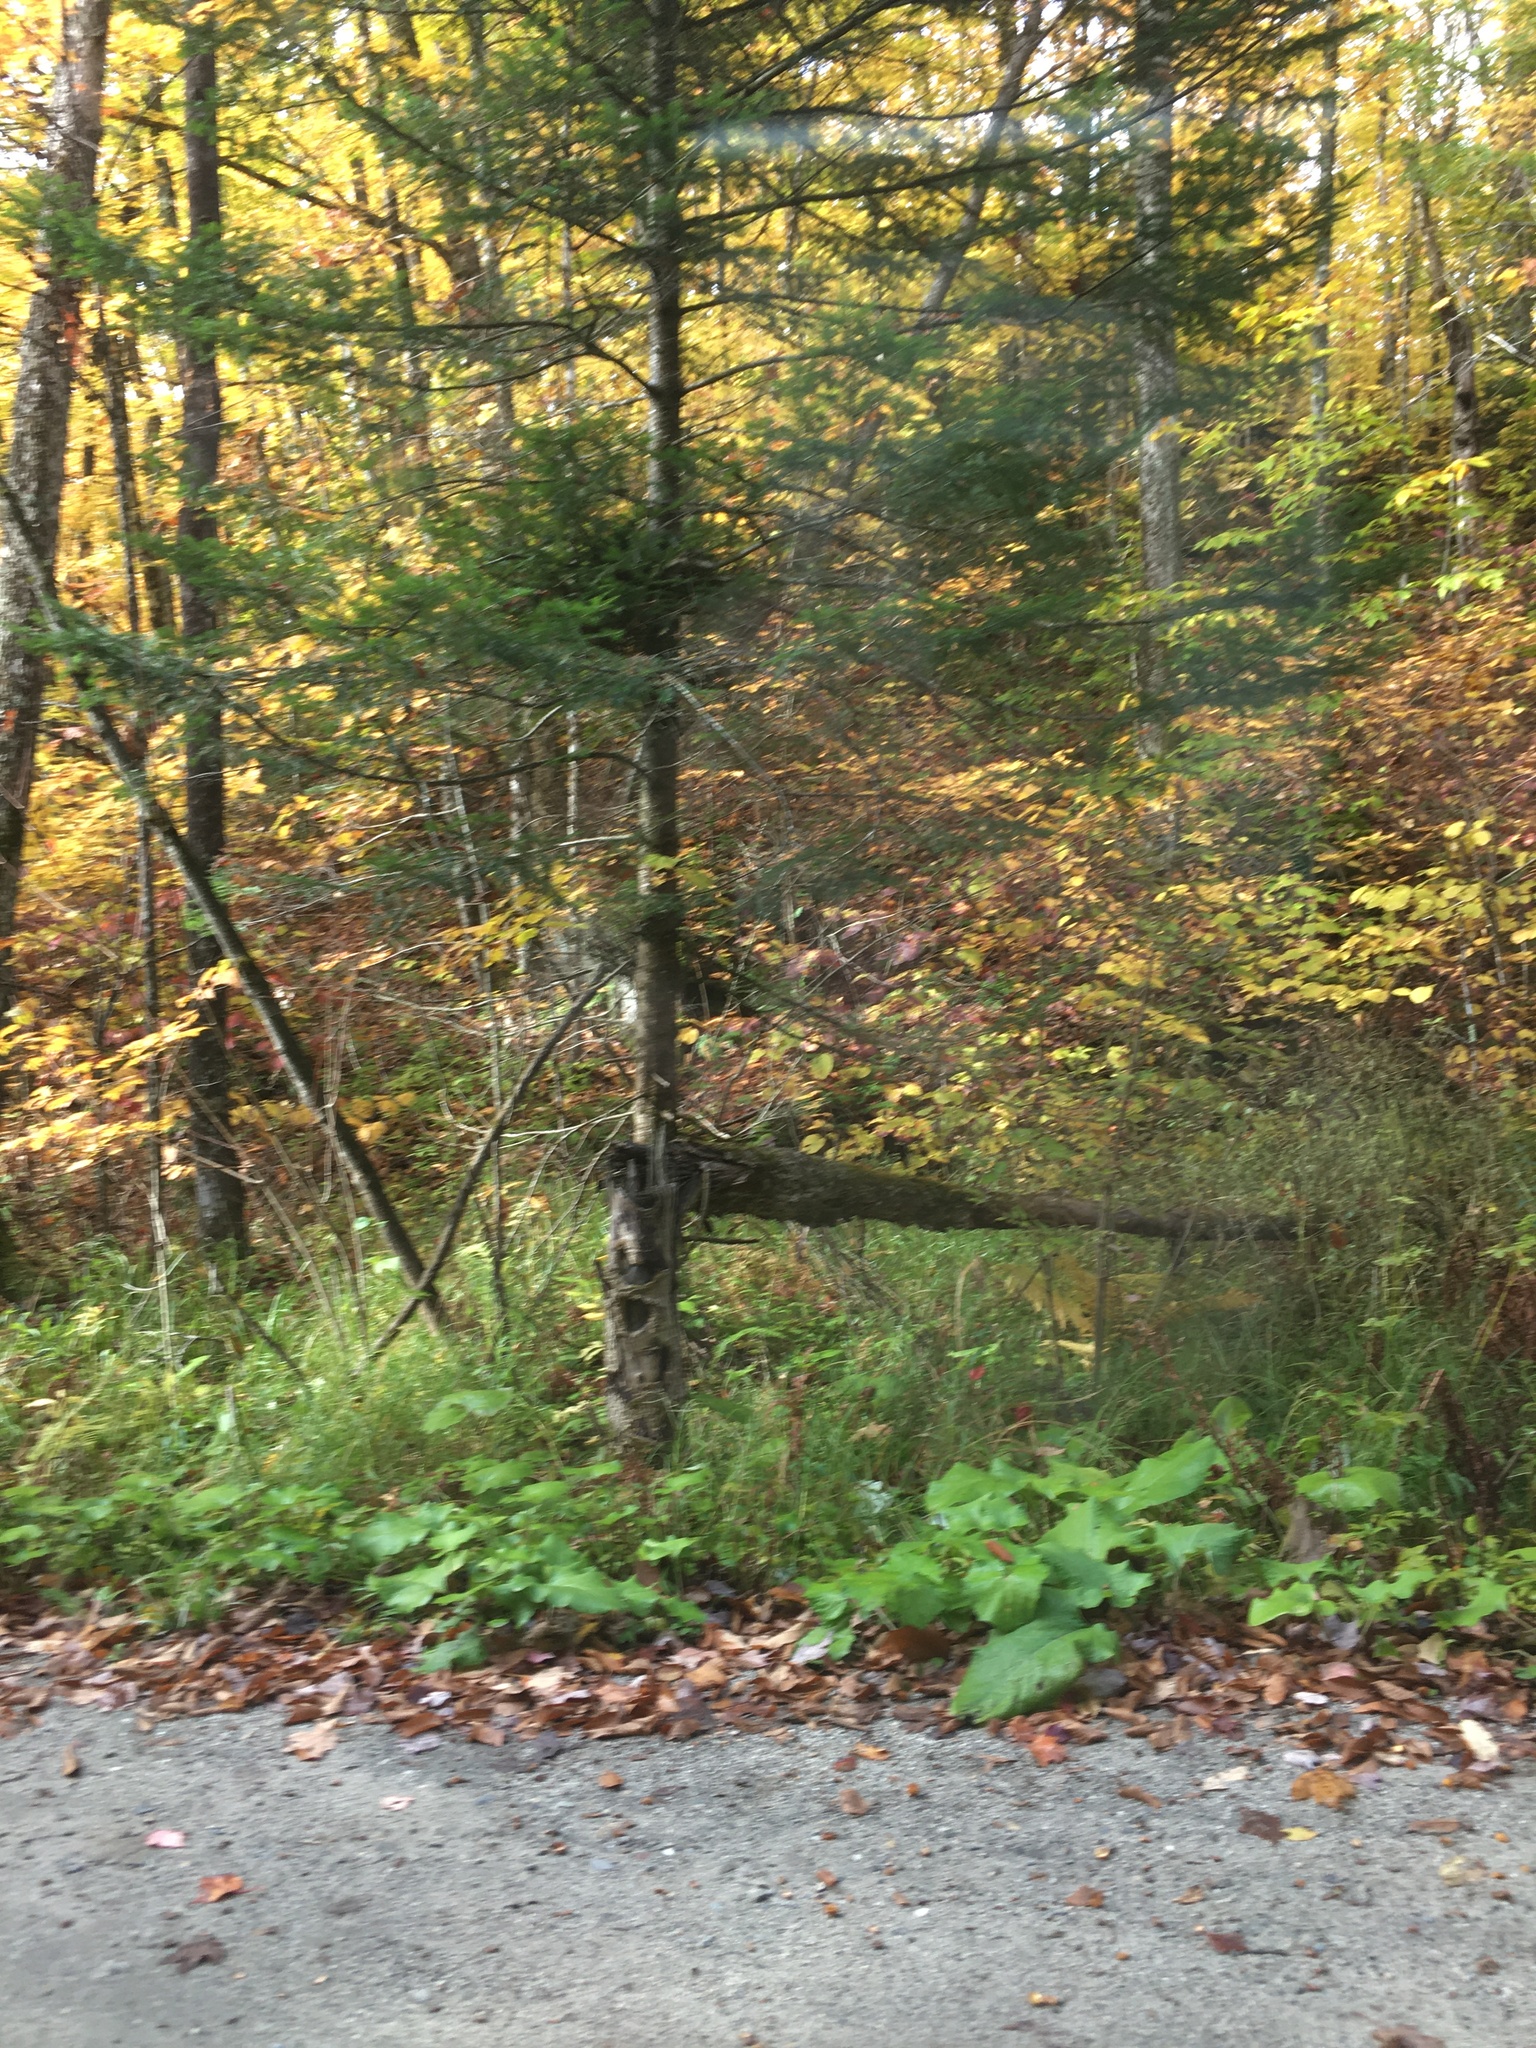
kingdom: Plantae
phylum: Tracheophyta
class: Pinopsida
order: Pinales
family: Pinaceae
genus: Abies
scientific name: Abies balsamea
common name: Balsam fir
